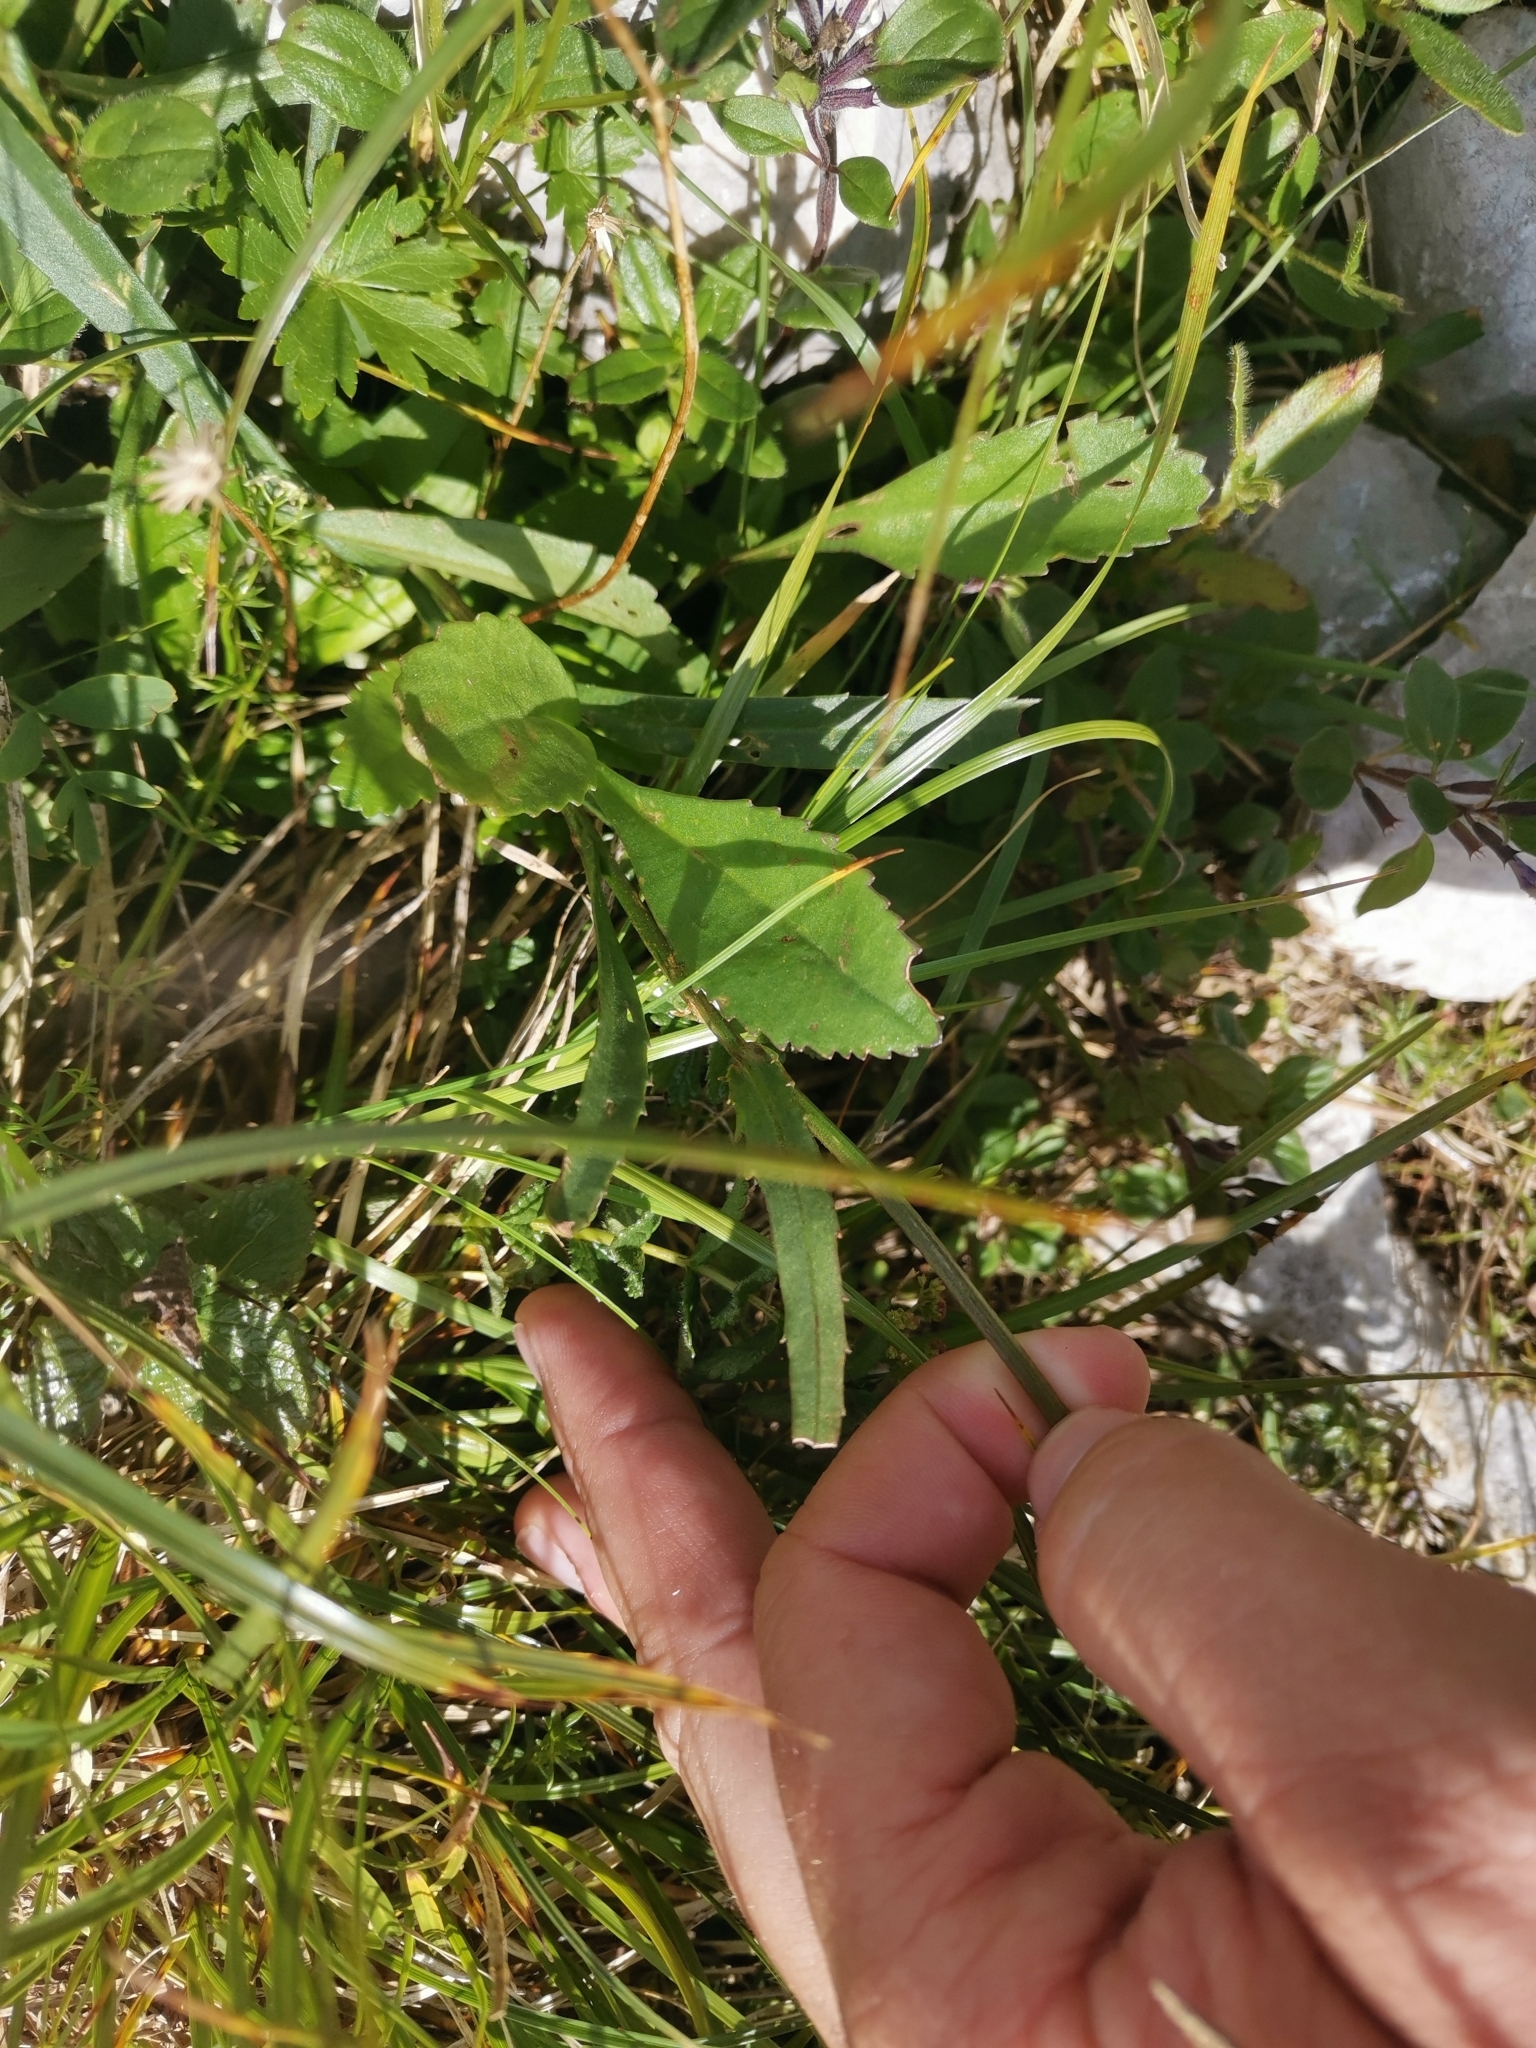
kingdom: Plantae
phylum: Tracheophyta
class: Magnoliopsida
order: Asterales
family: Asteraceae
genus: Leucanthemum
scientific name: Leucanthemum adustum
